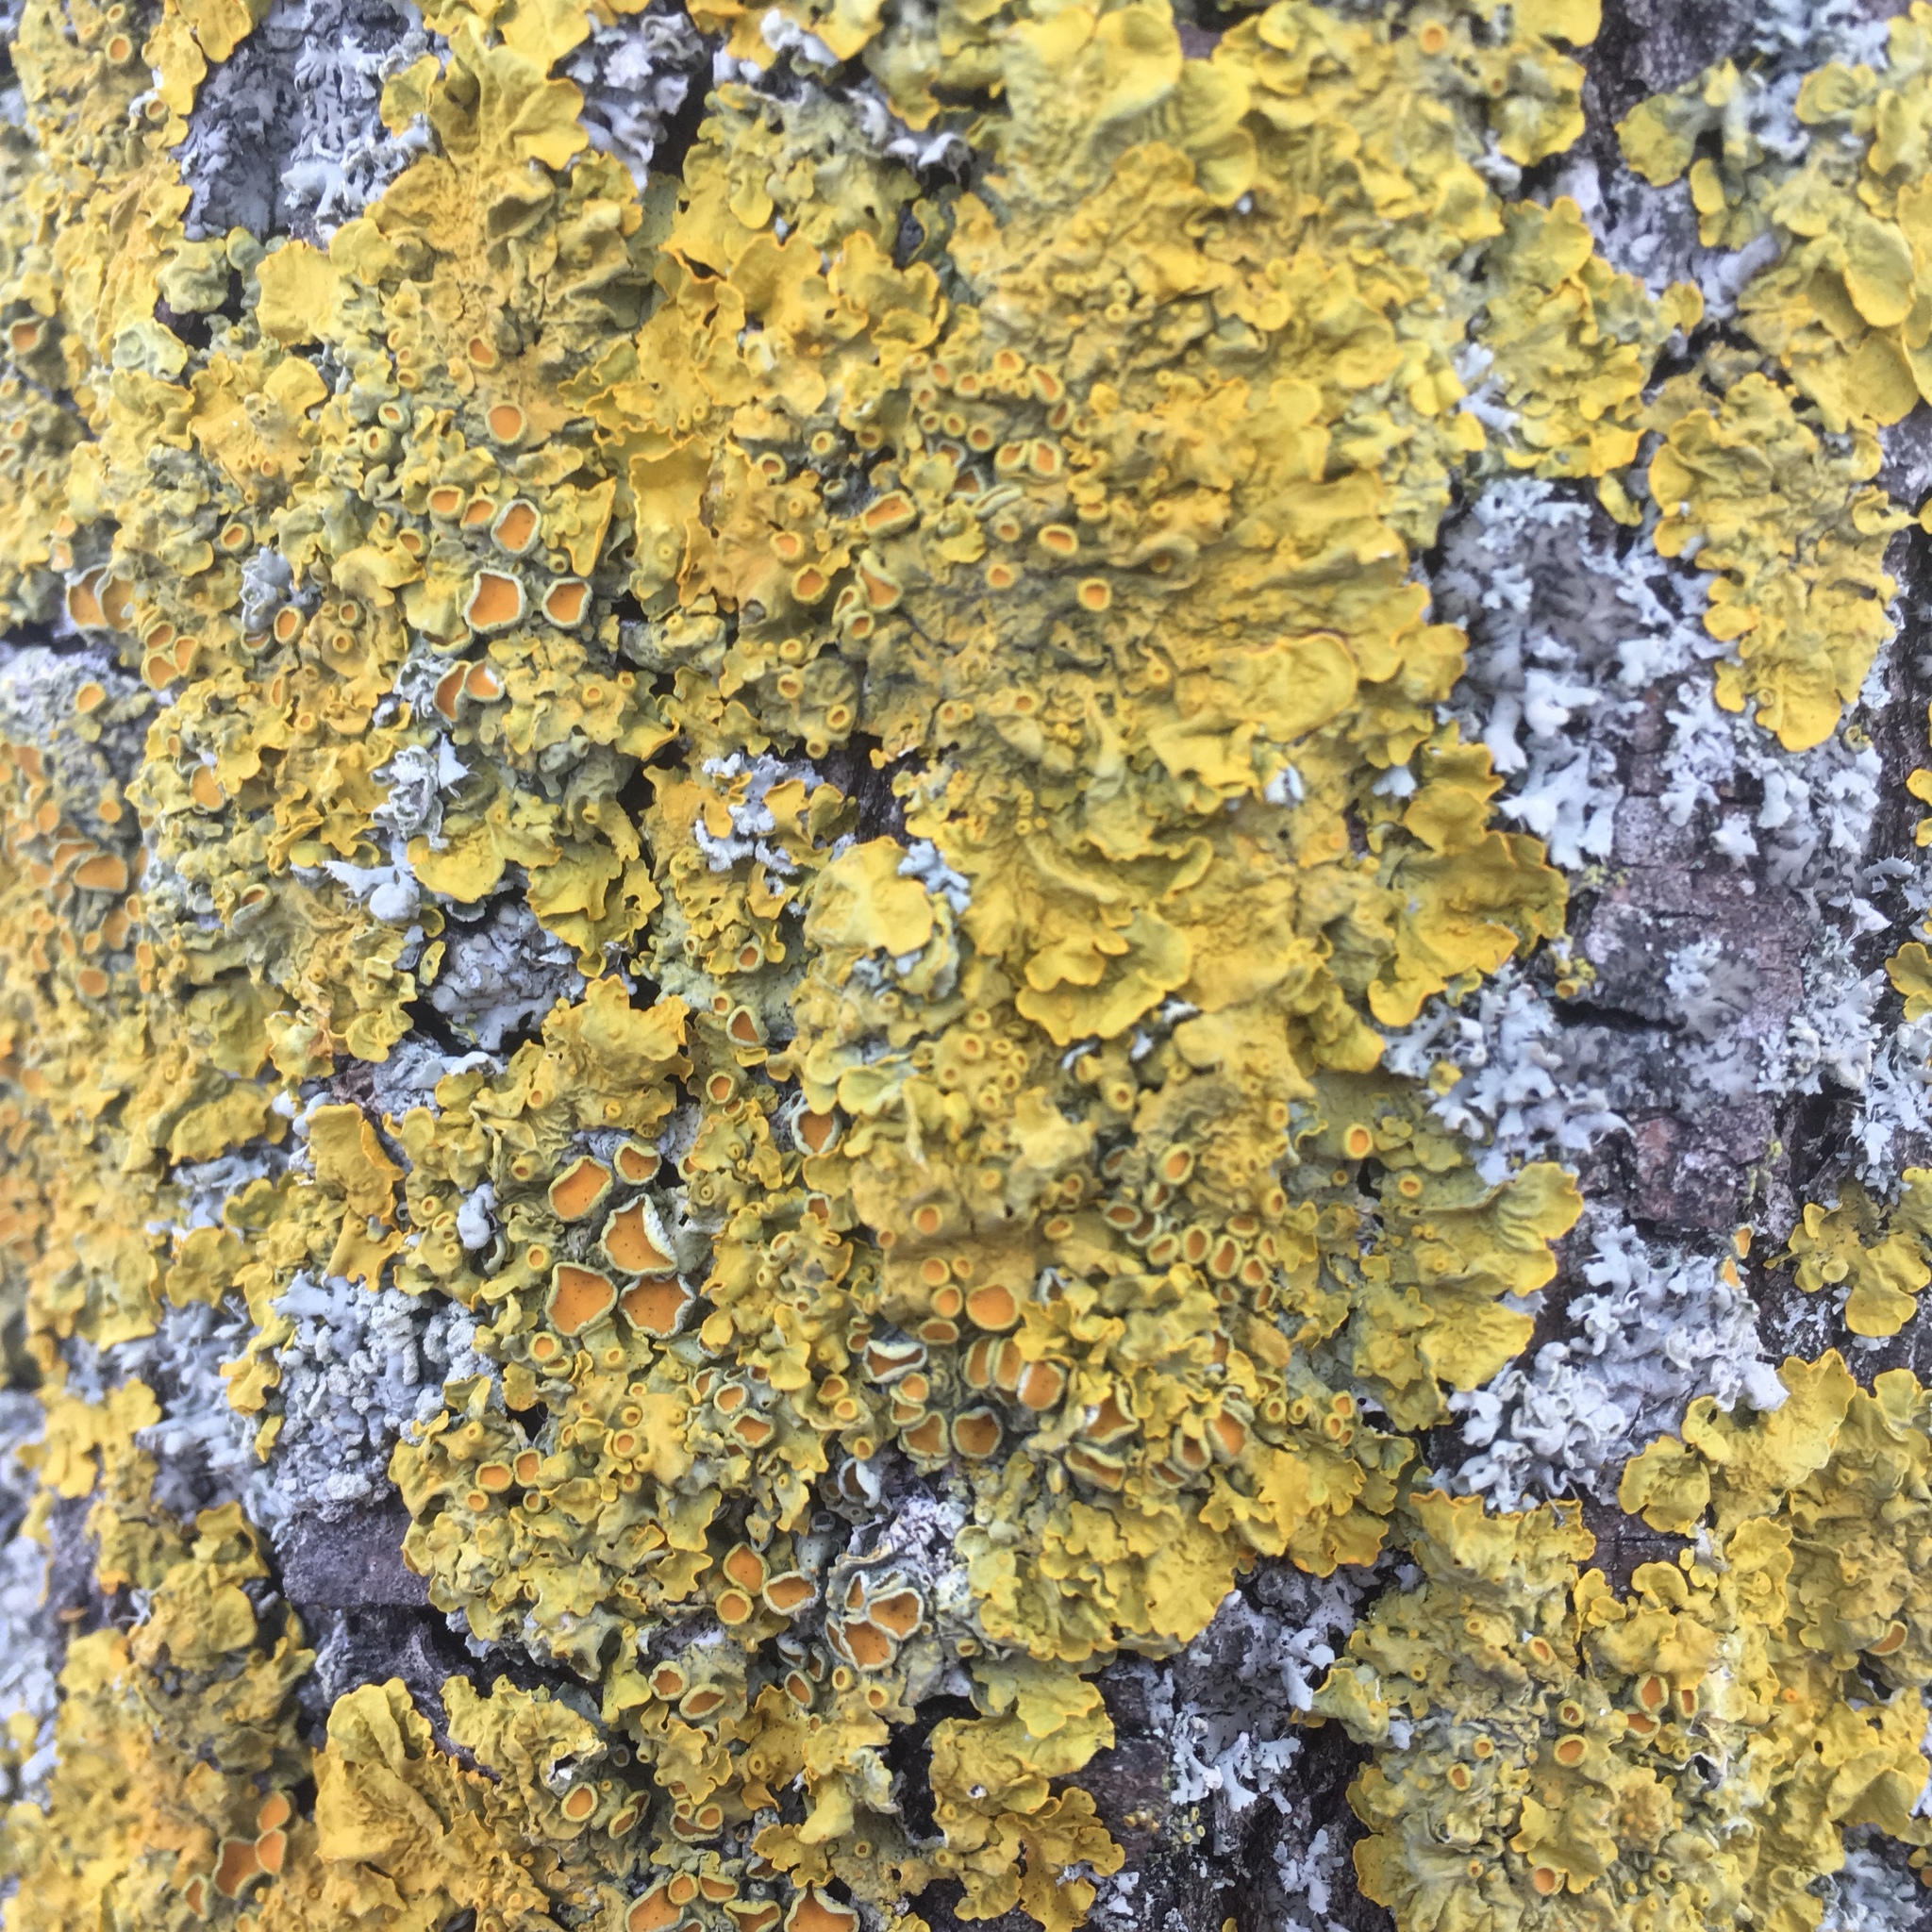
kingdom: Fungi
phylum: Ascomycota
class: Lecanoromycetes
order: Teloschistales
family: Teloschistaceae
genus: Xanthoria
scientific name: Xanthoria parietina
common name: Common orange lichen
